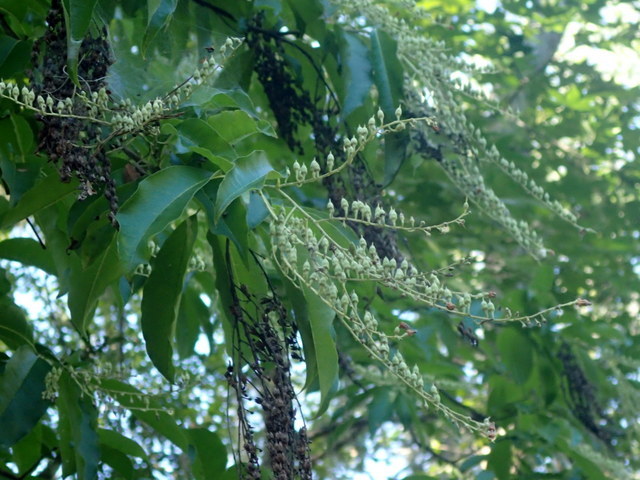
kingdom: Plantae
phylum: Tracheophyta
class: Magnoliopsida
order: Ericales
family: Ericaceae
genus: Oxydendrum
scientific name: Oxydendrum arboreum
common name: Sourwood
